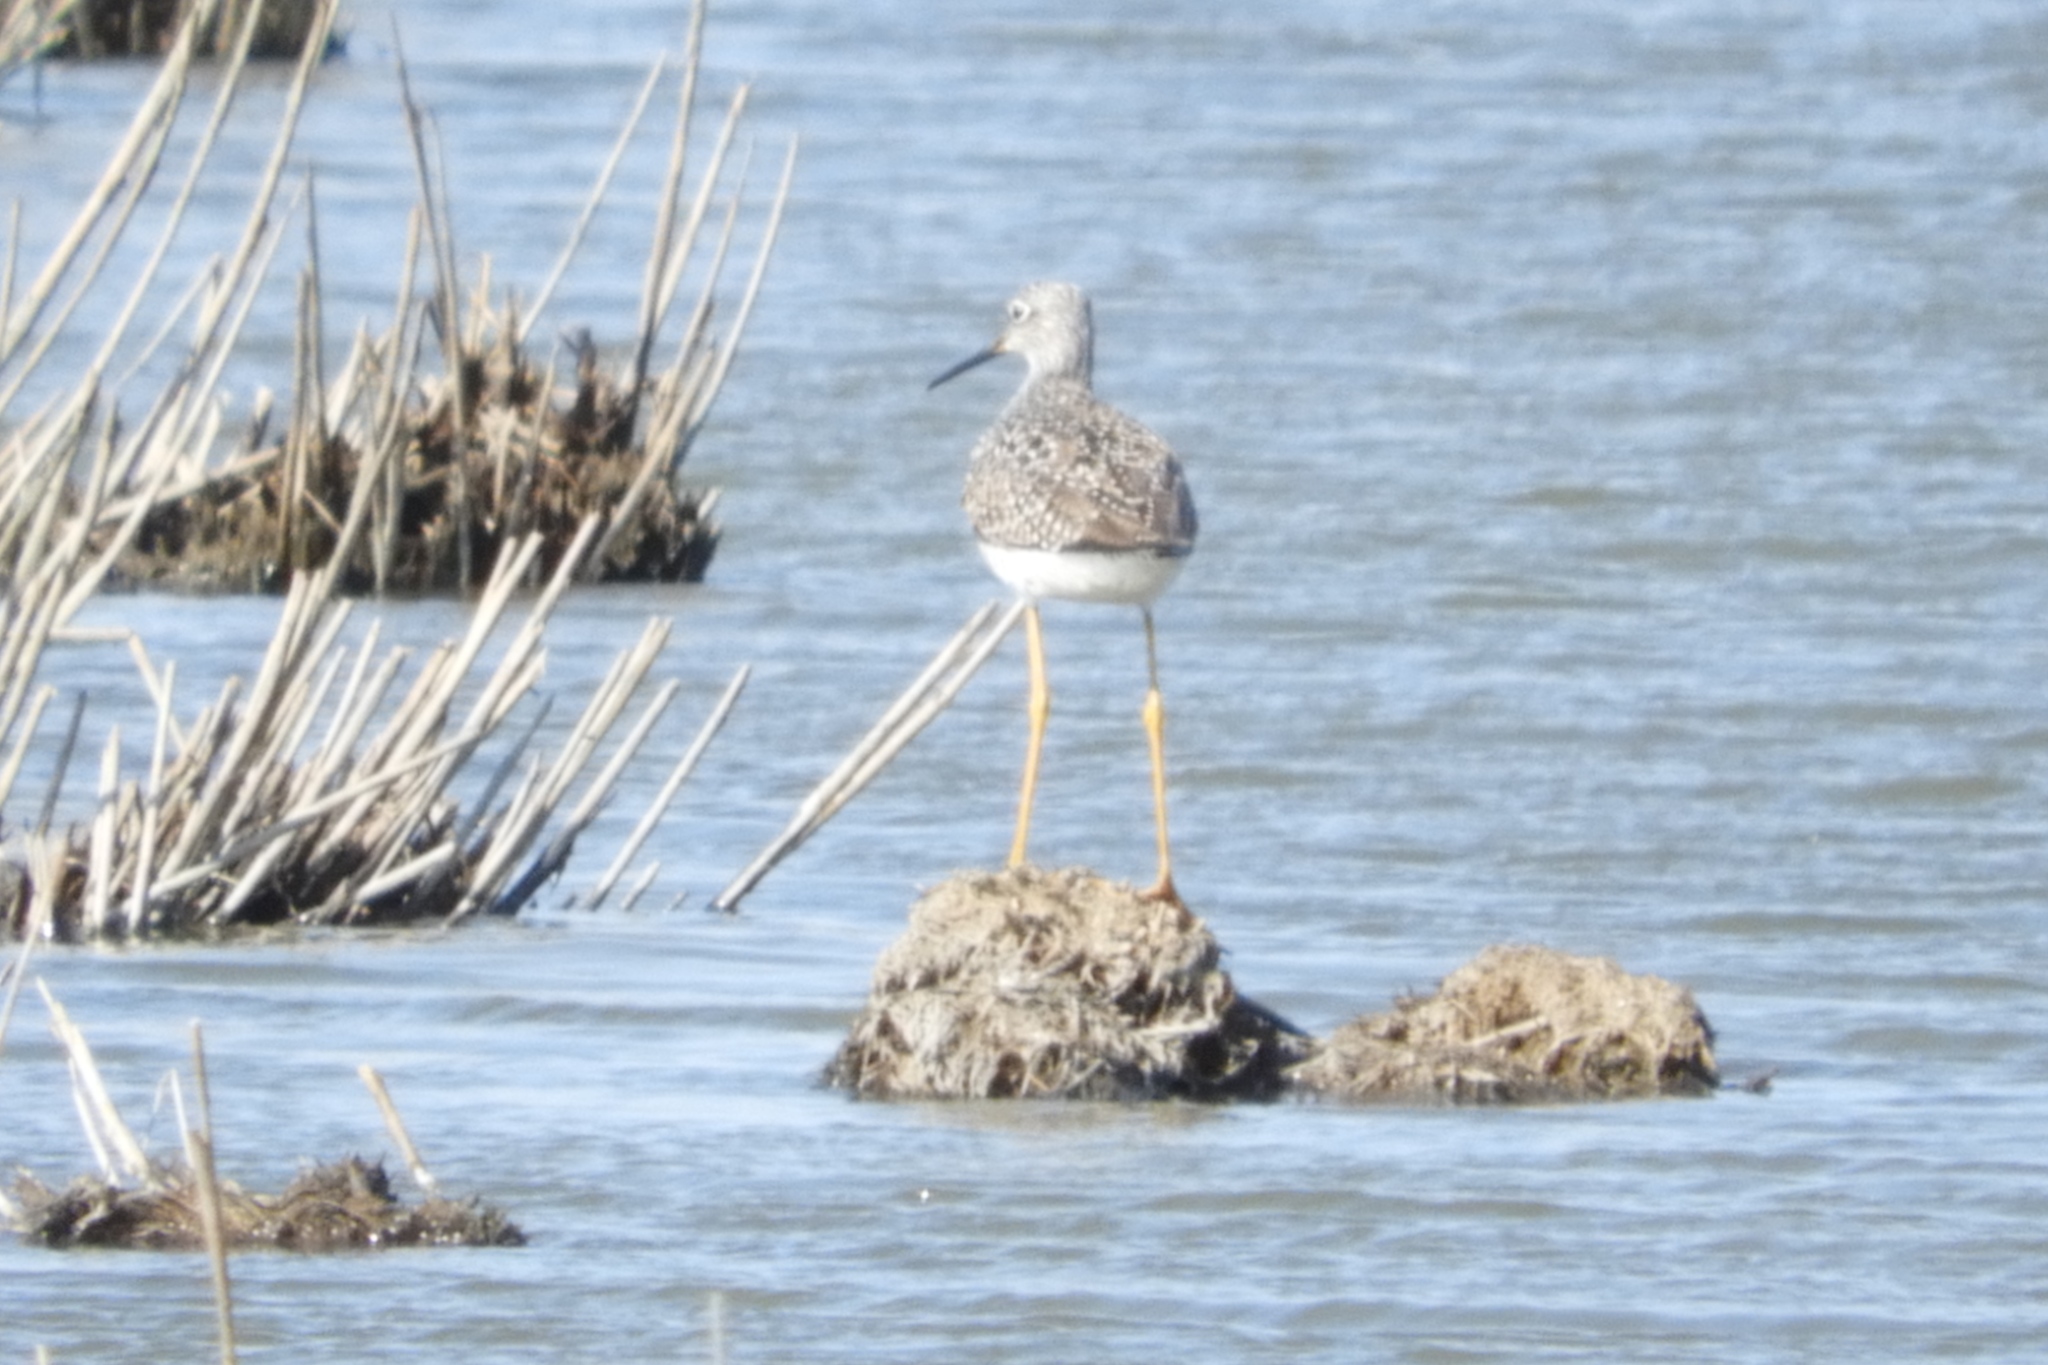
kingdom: Animalia
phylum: Chordata
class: Aves
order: Charadriiformes
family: Scolopacidae
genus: Tringa
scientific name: Tringa melanoleuca
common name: Greater yellowlegs
